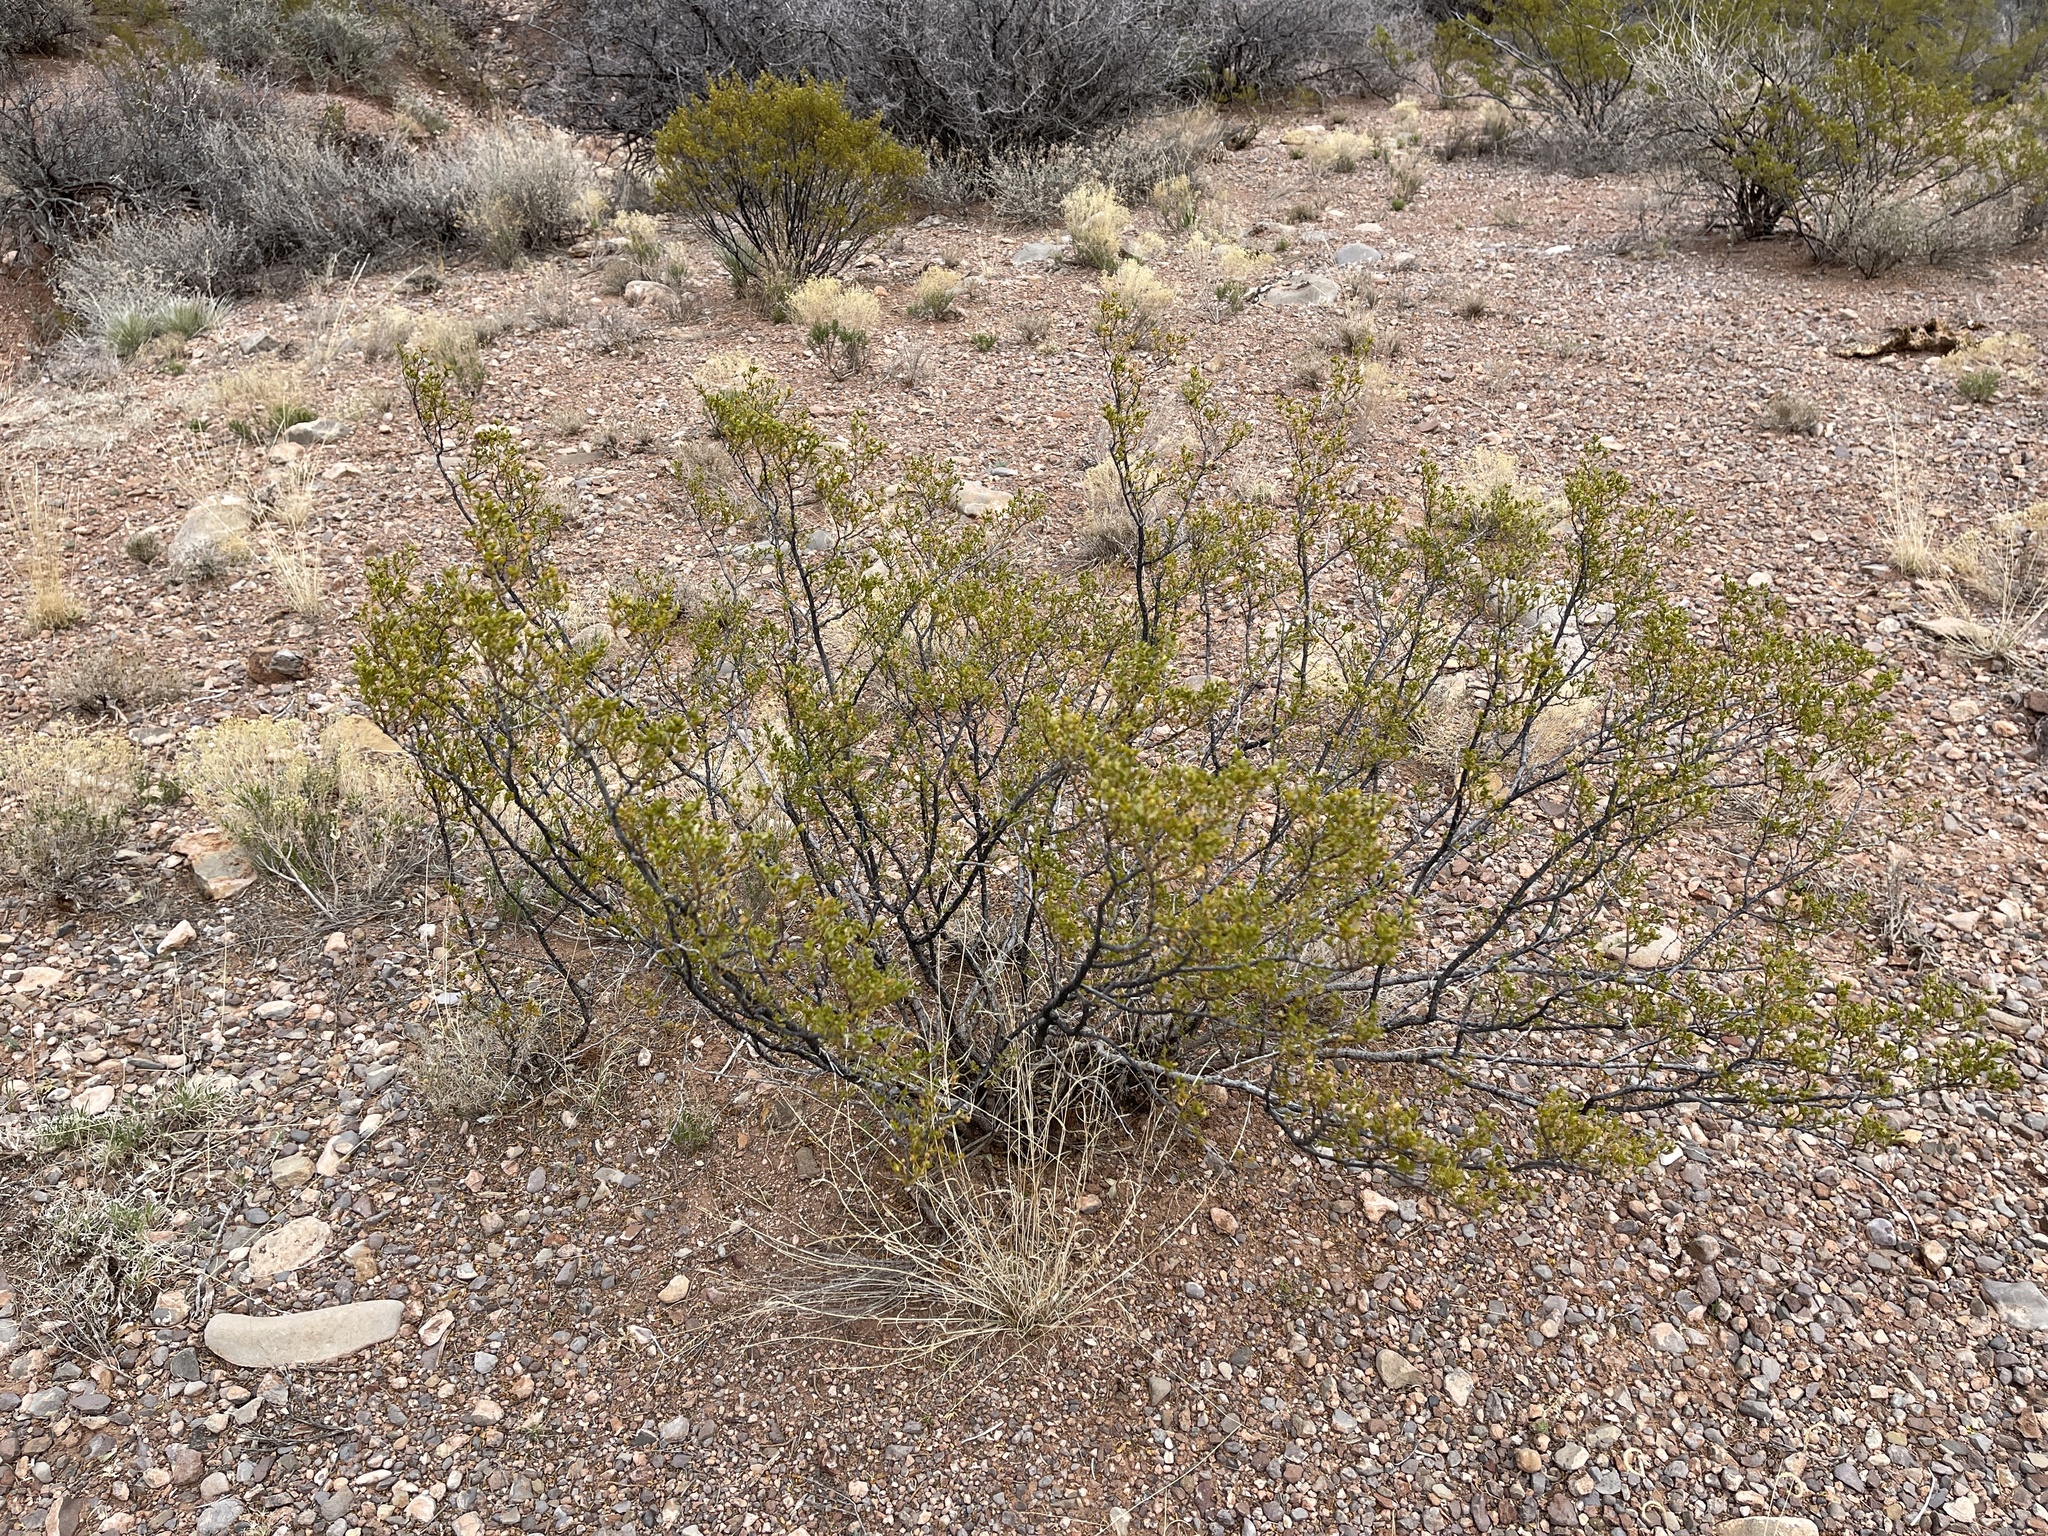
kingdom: Plantae
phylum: Tracheophyta
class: Magnoliopsida
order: Zygophyllales
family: Zygophyllaceae
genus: Larrea
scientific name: Larrea tridentata
